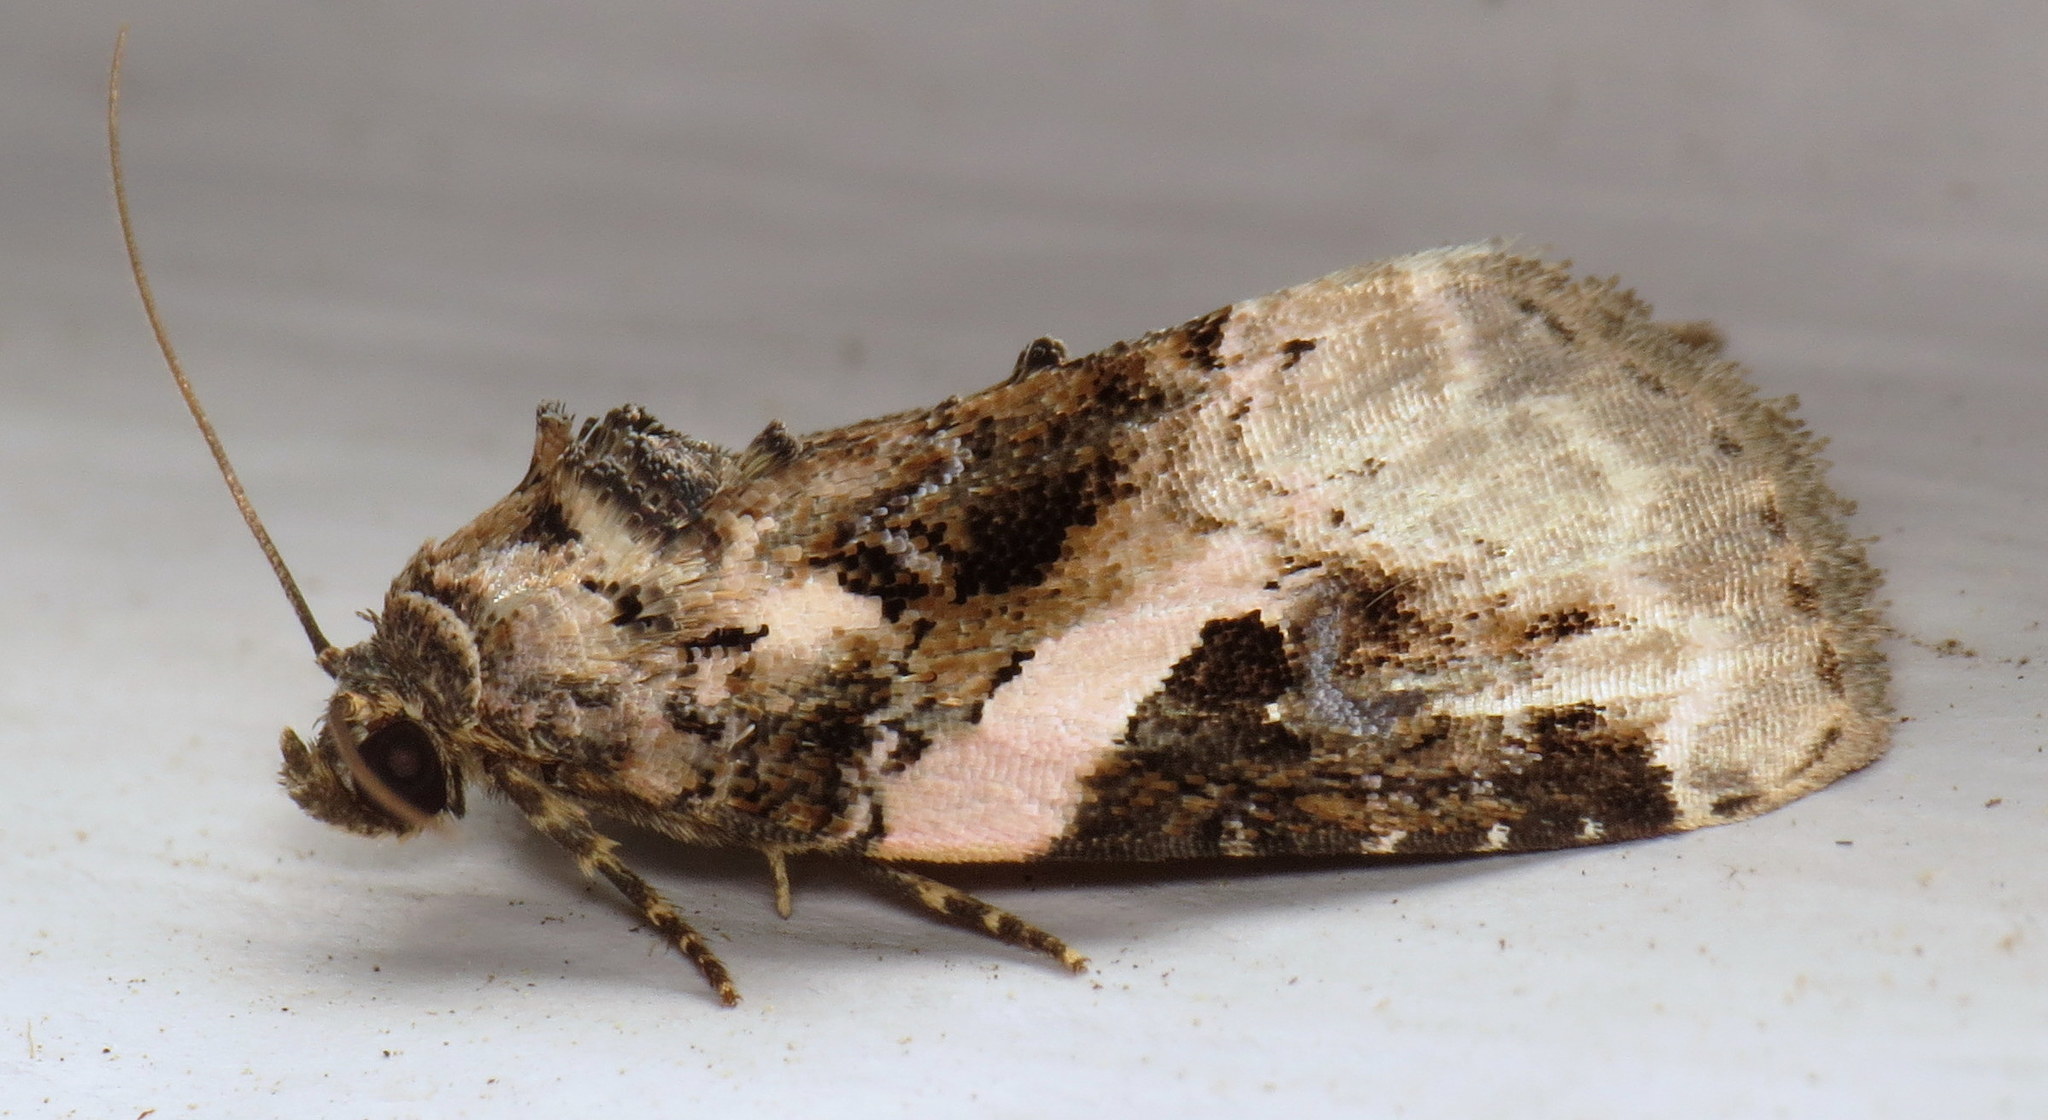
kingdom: Animalia
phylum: Arthropoda
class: Insecta
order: Lepidoptera
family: Noctuidae
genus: Pseudeustrotia
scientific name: Pseudeustrotia carneola
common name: Pink-barred lithacodia moth
